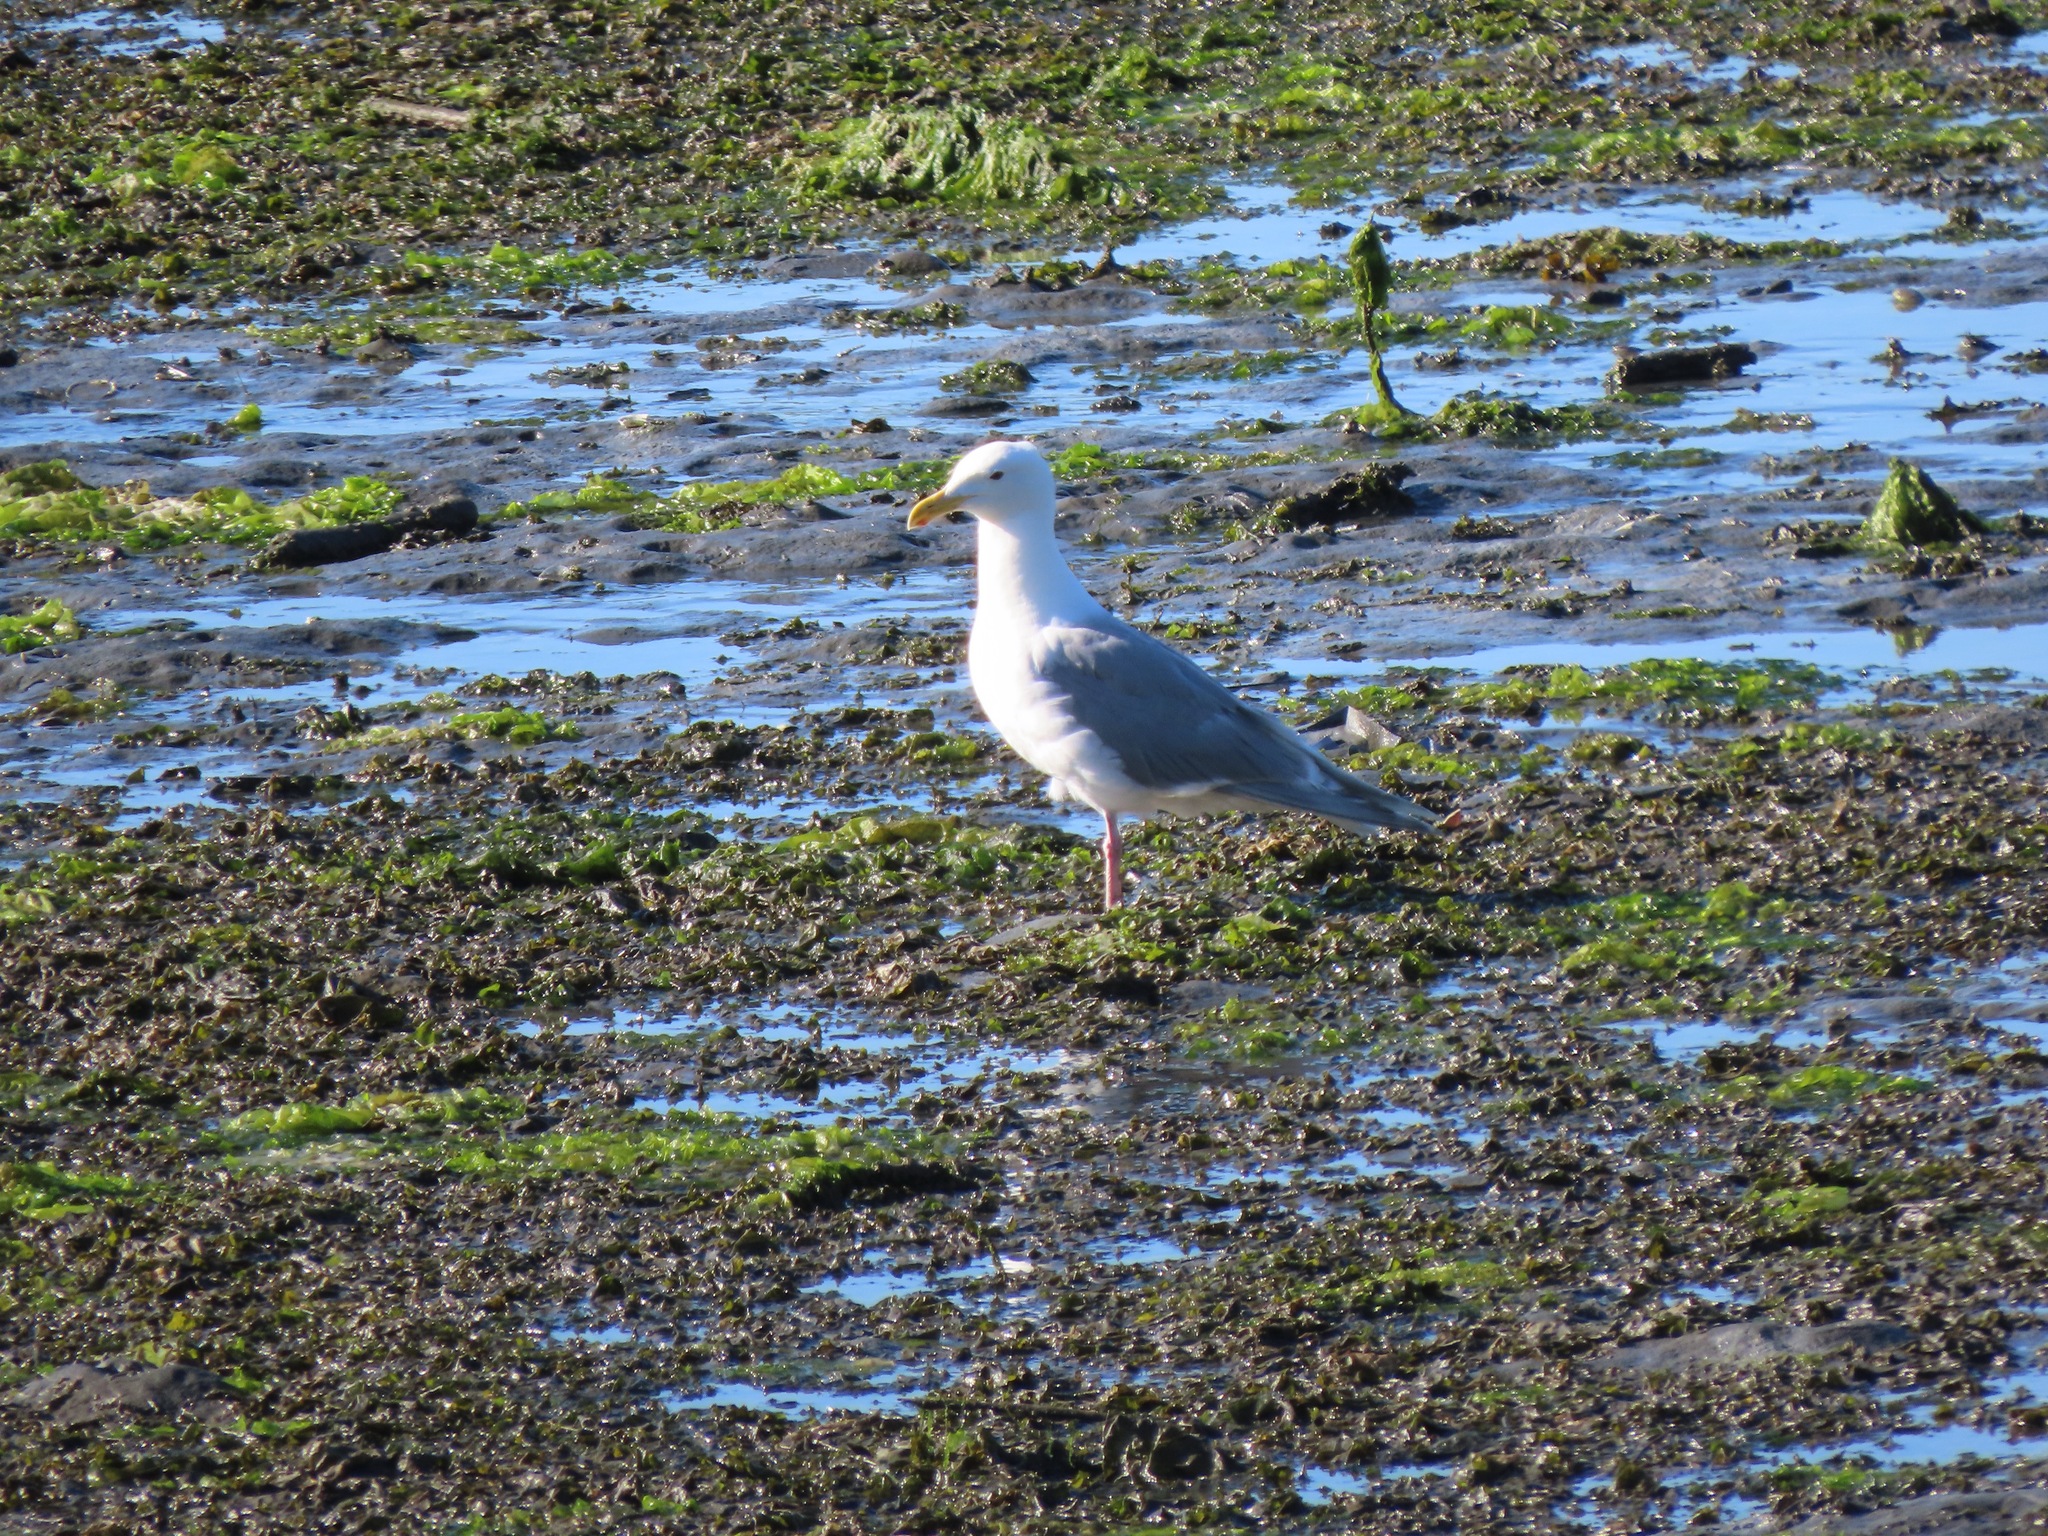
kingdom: Animalia
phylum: Chordata
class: Aves
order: Charadriiformes
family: Laridae
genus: Larus
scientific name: Larus glaucescens
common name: Glaucous-winged gull
